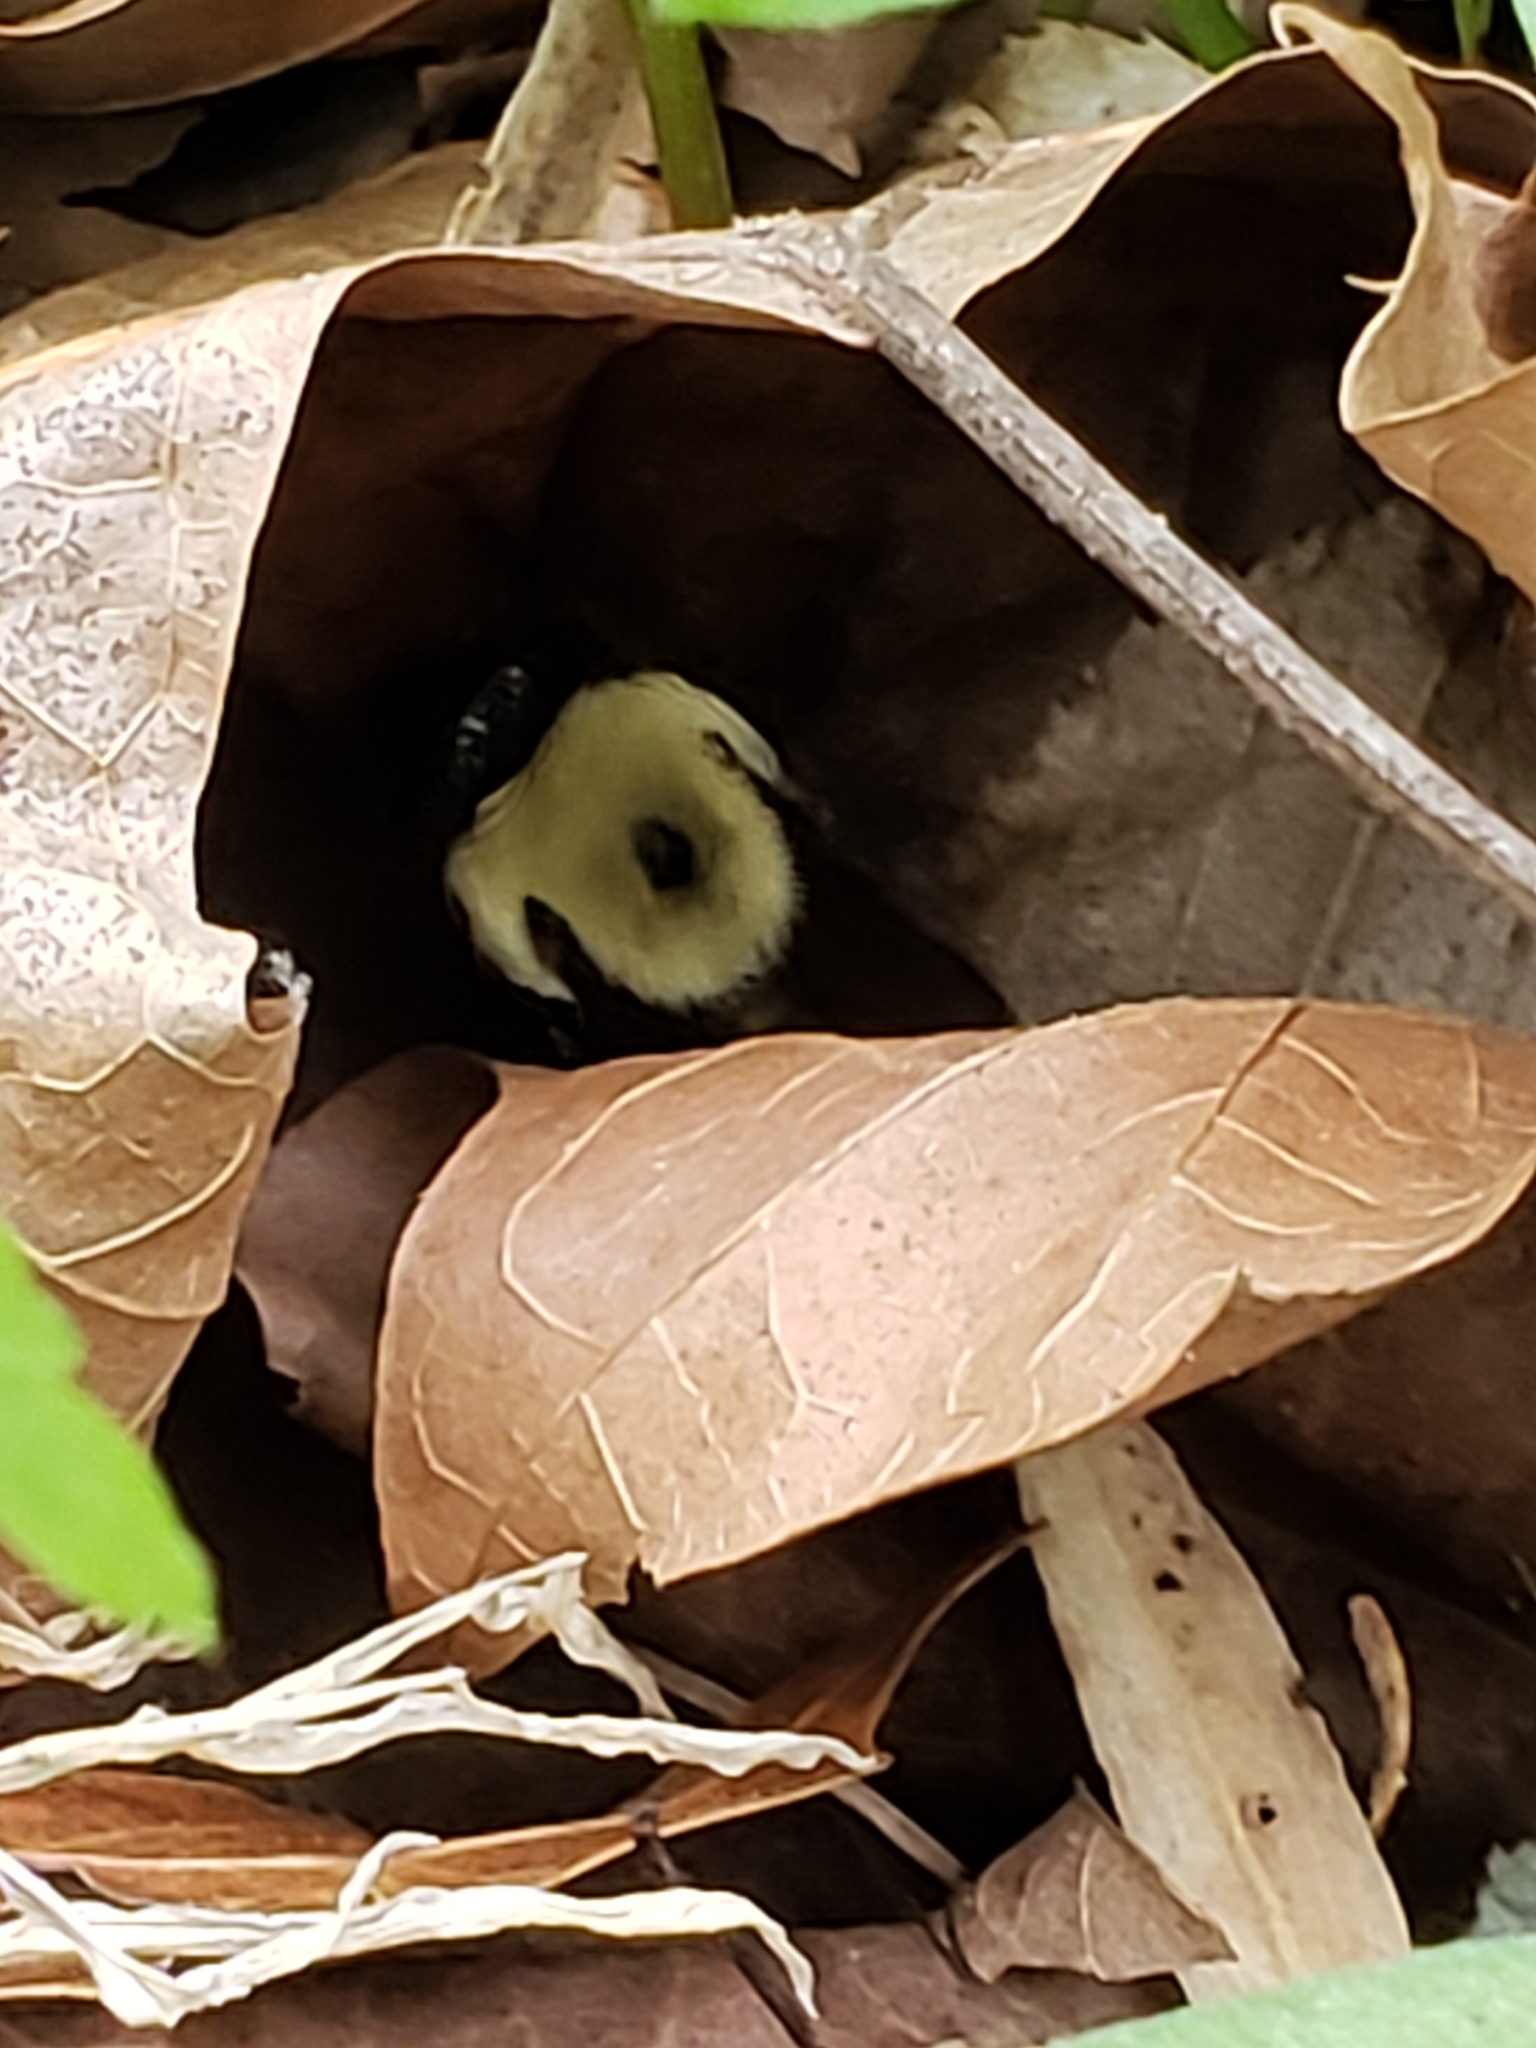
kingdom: Animalia
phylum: Arthropoda
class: Insecta
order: Hymenoptera
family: Apidae
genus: Bombus
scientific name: Bombus griseocollis
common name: Brown-belted bumble bee
